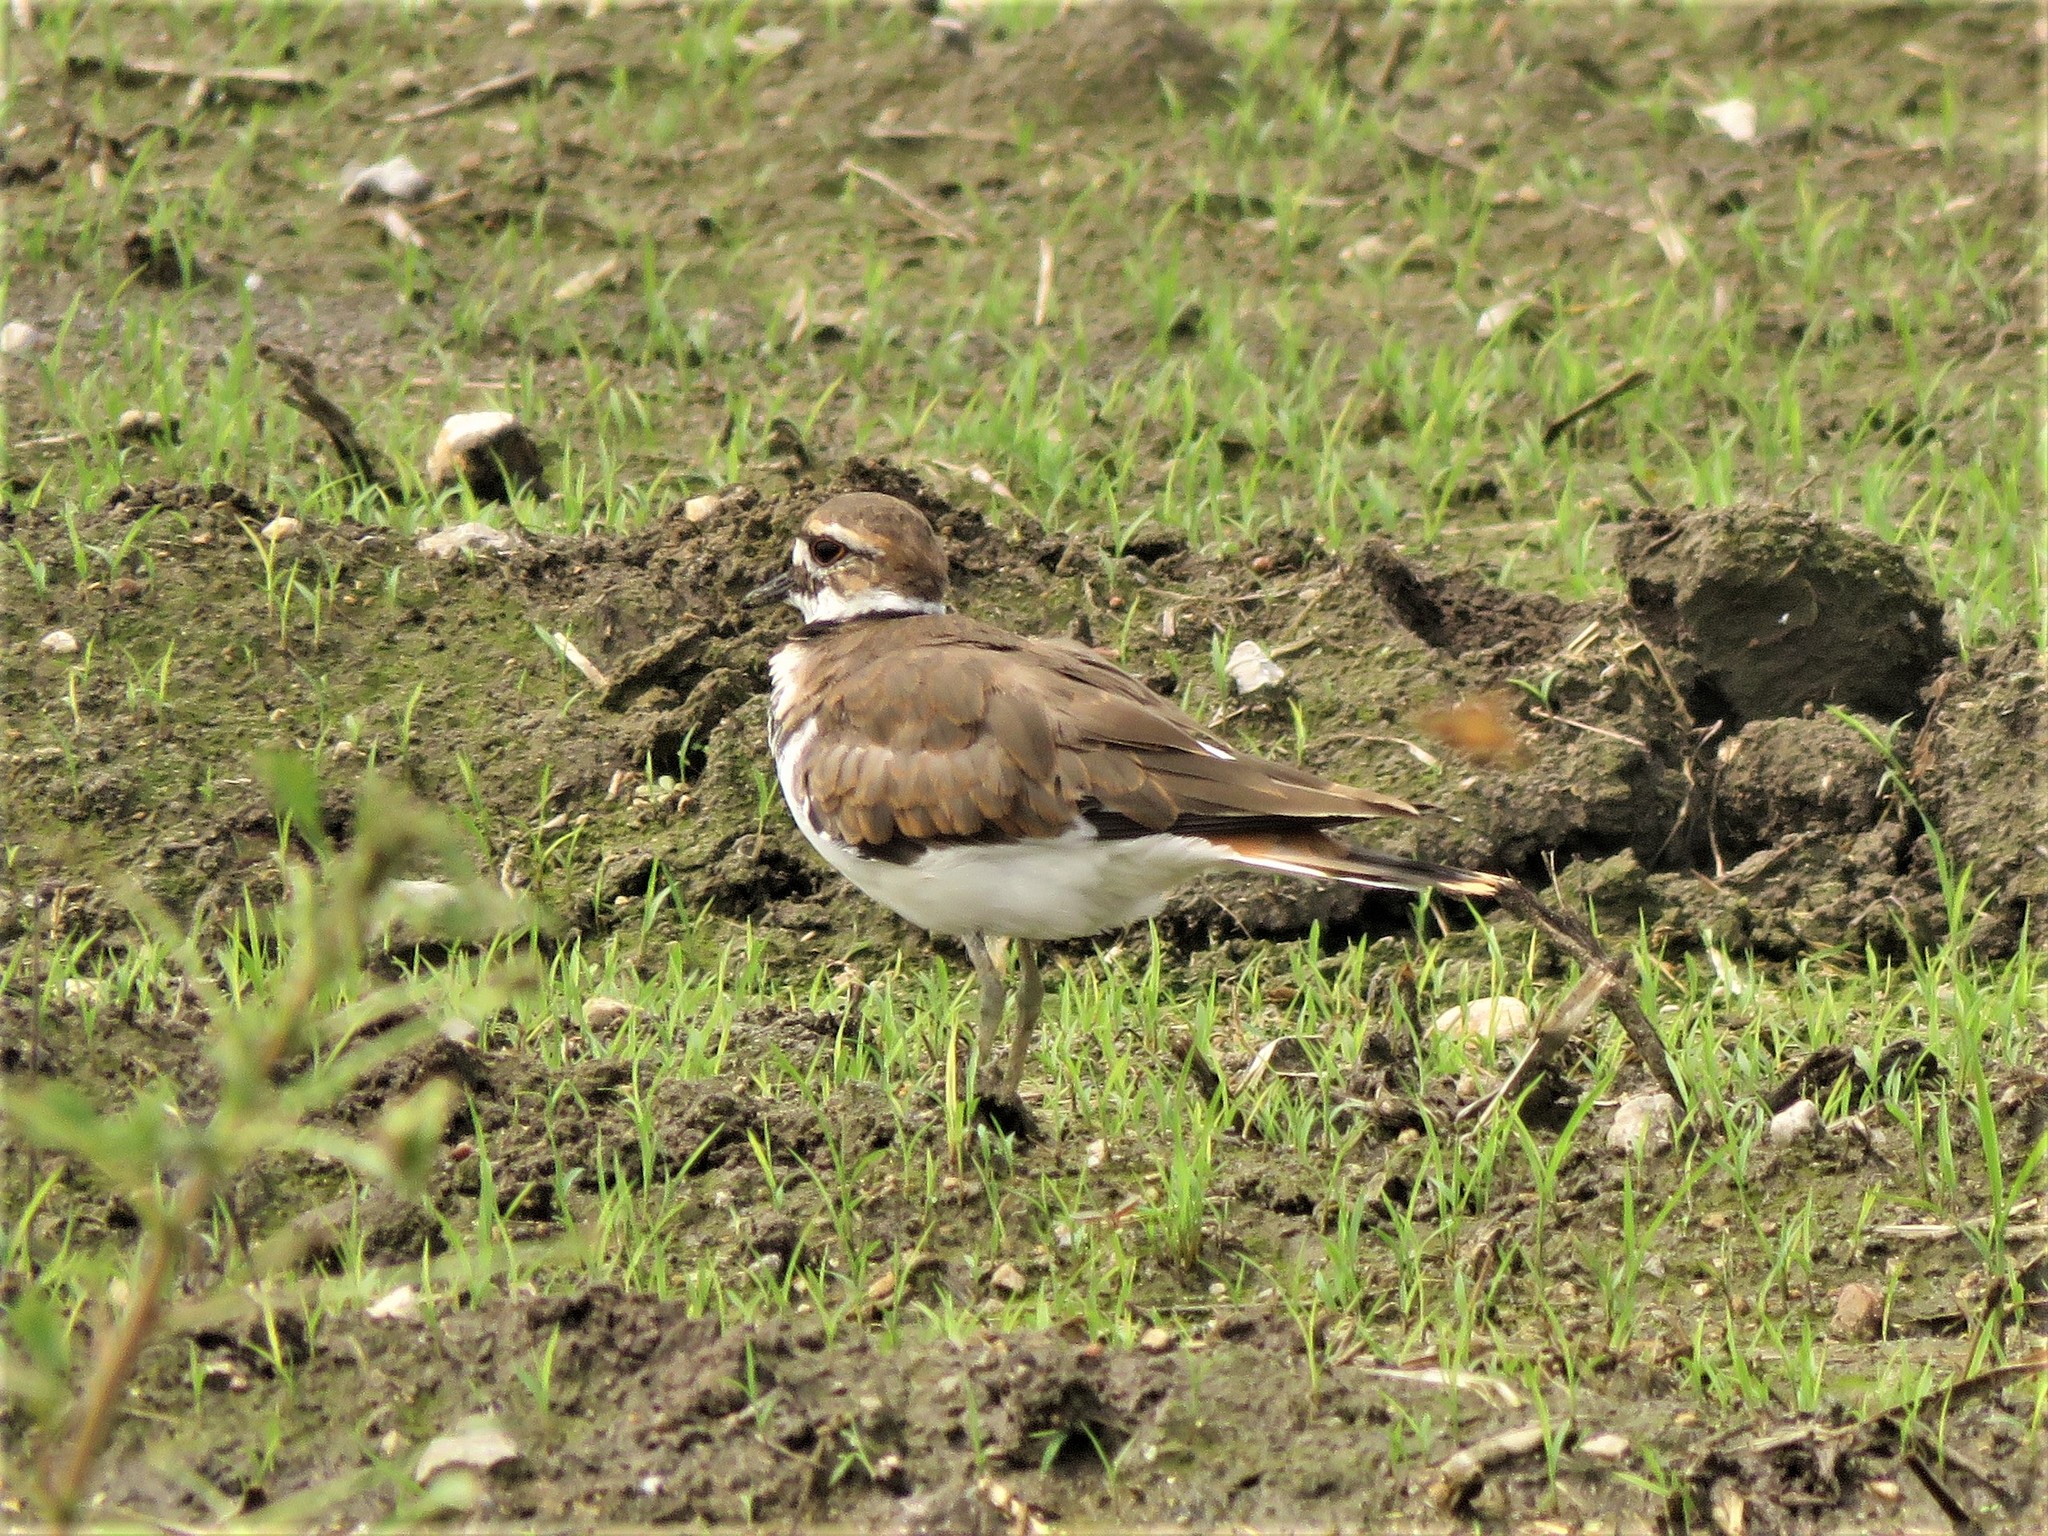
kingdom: Animalia
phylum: Chordata
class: Aves
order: Charadriiformes
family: Charadriidae
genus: Charadrius
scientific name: Charadrius vociferus
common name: Killdeer
